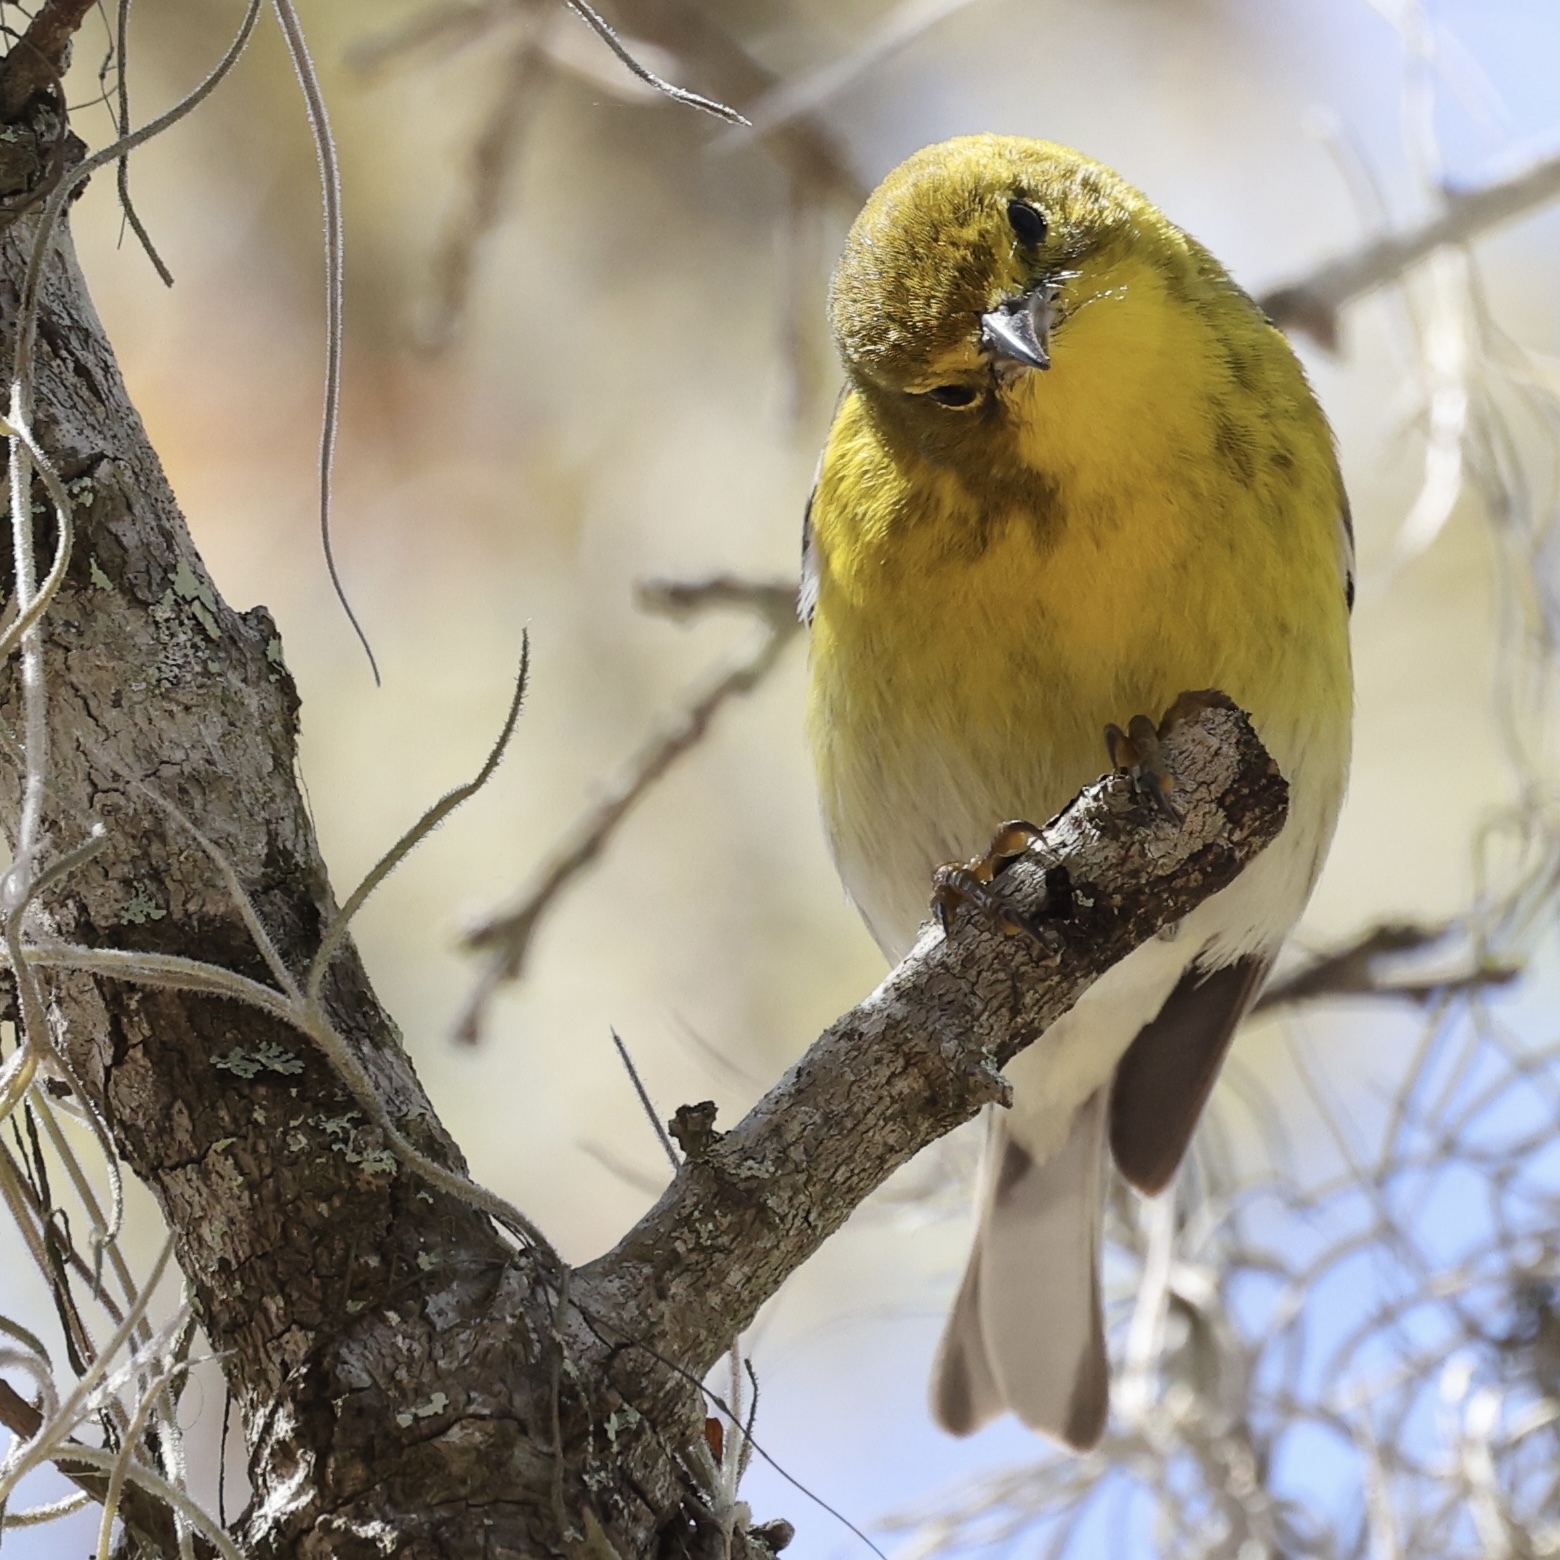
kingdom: Animalia
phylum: Chordata
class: Aves
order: Passeriformes
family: Parulidae
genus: Setophaga
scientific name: Setophaga pinus
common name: Pine warbler
